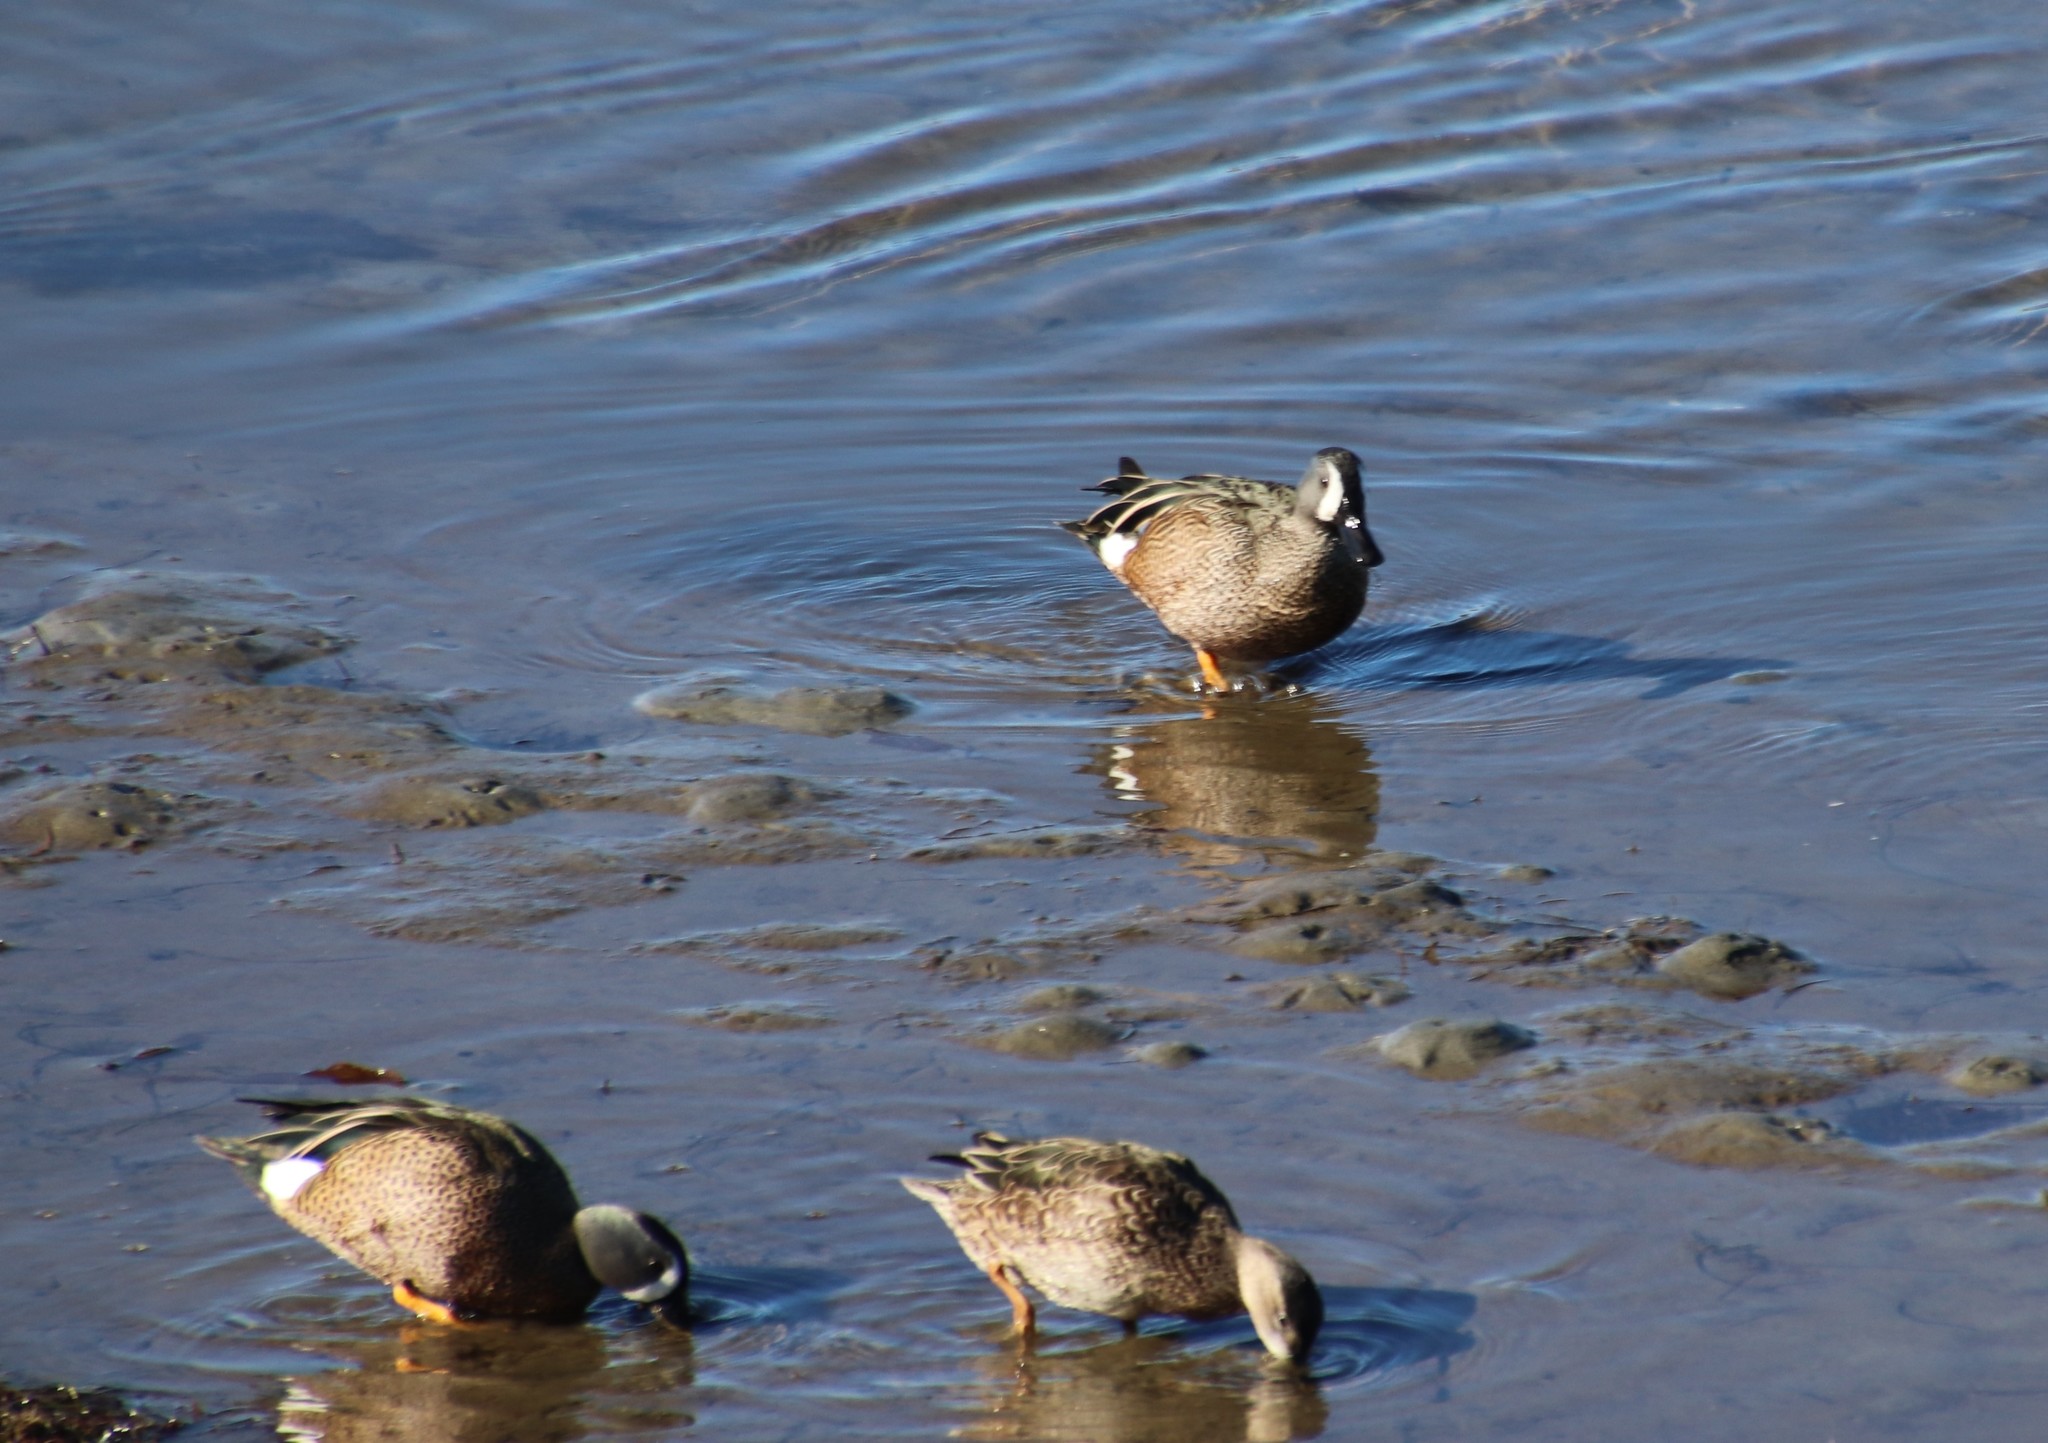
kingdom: Animalia
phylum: Chordata
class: Aves
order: Anseriformes
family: Anatidae
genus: Spatula
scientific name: Spatula discors
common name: Blue-winged teal
